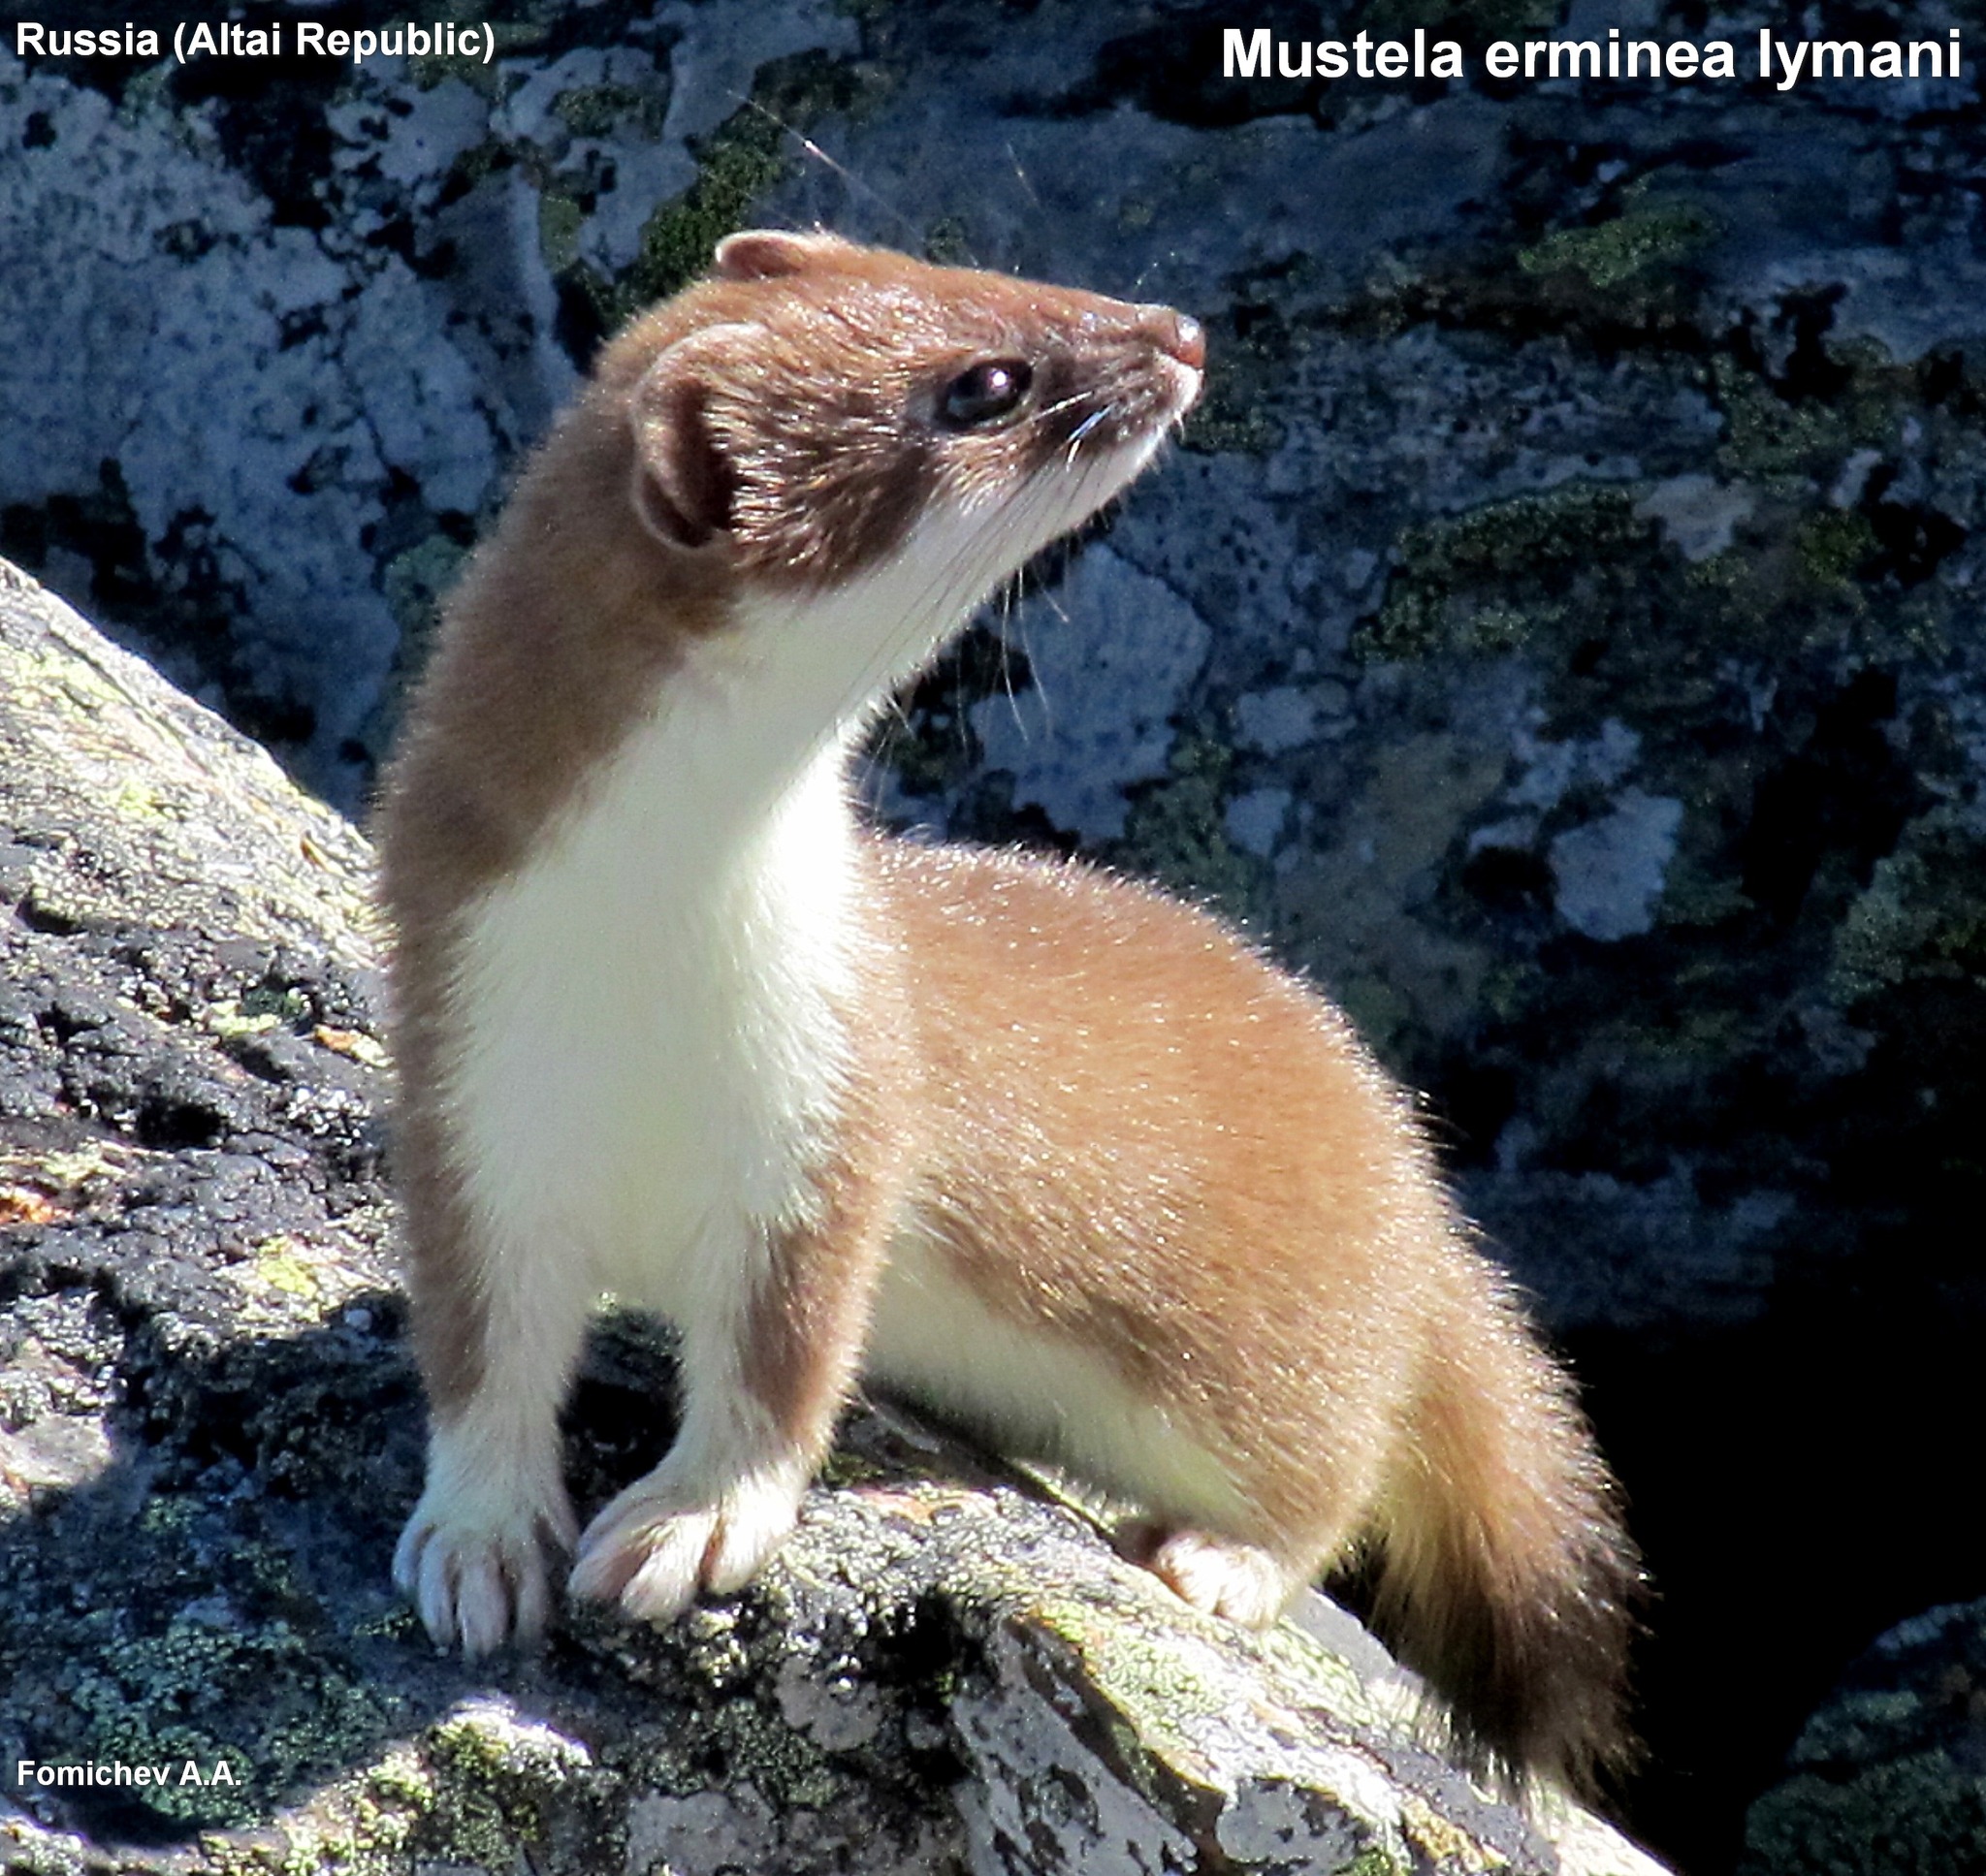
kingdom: Animalia
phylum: Chordata
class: Mammalia
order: Carnivora
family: Mustelidae
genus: Mustela
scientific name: Mustela erminea
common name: Stoat
